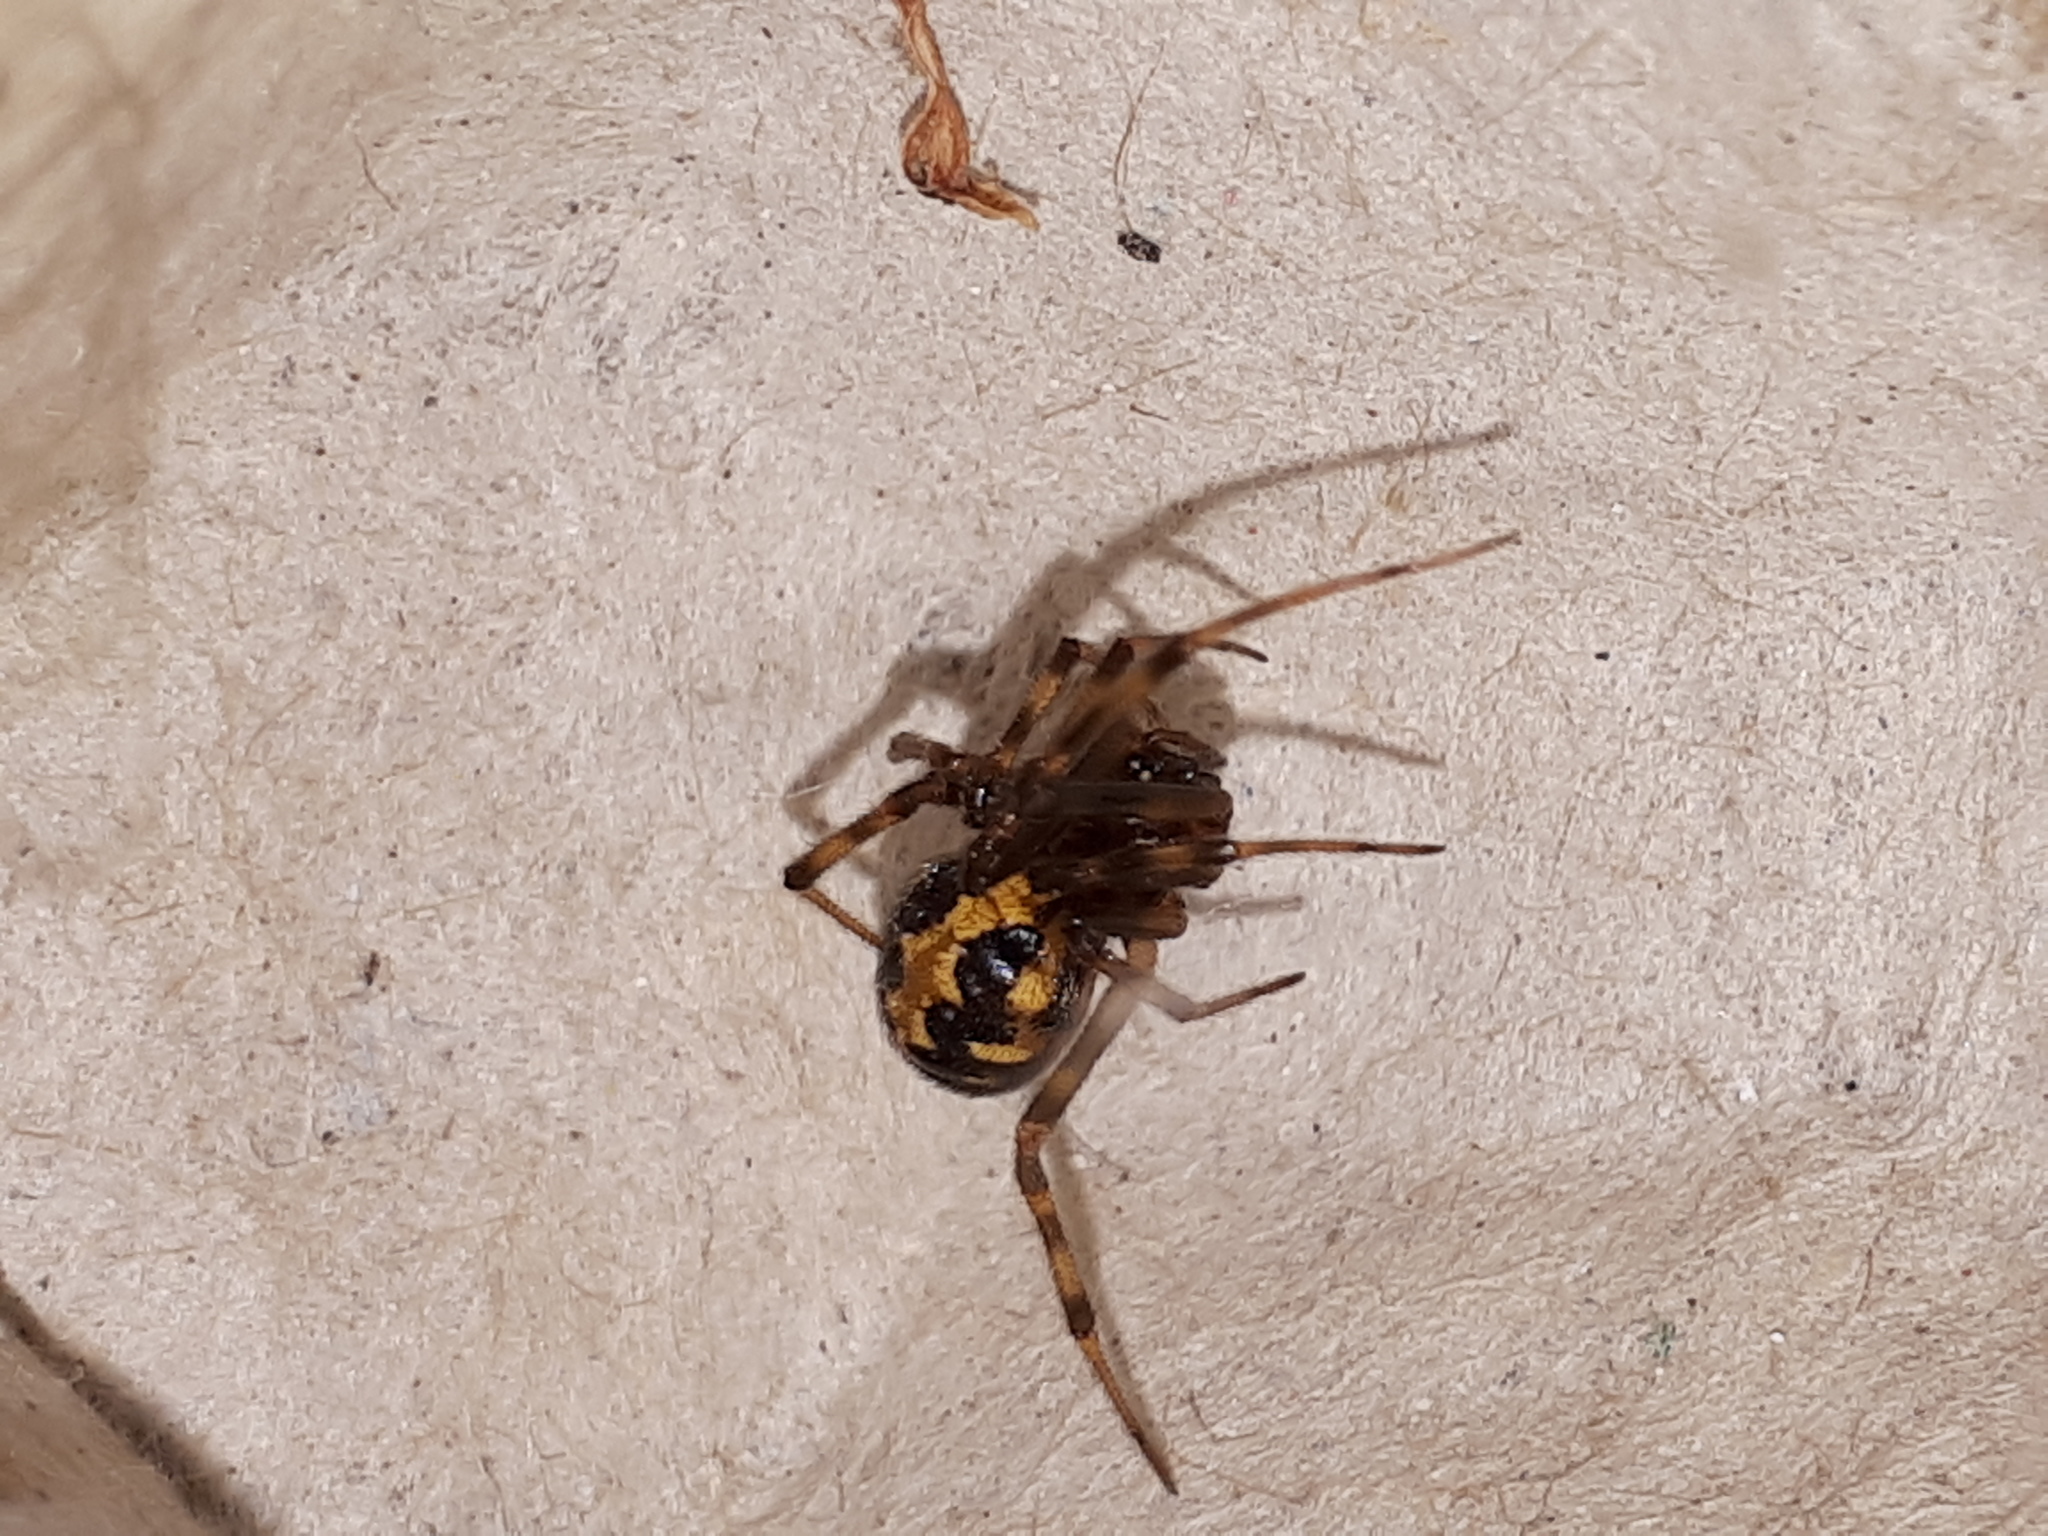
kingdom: Animalia
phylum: Arthropoda
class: Arachnida
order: Araneae
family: Theridiidae
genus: Steatoda
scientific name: Steatoda triangulosa
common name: Triangulate bud spider
